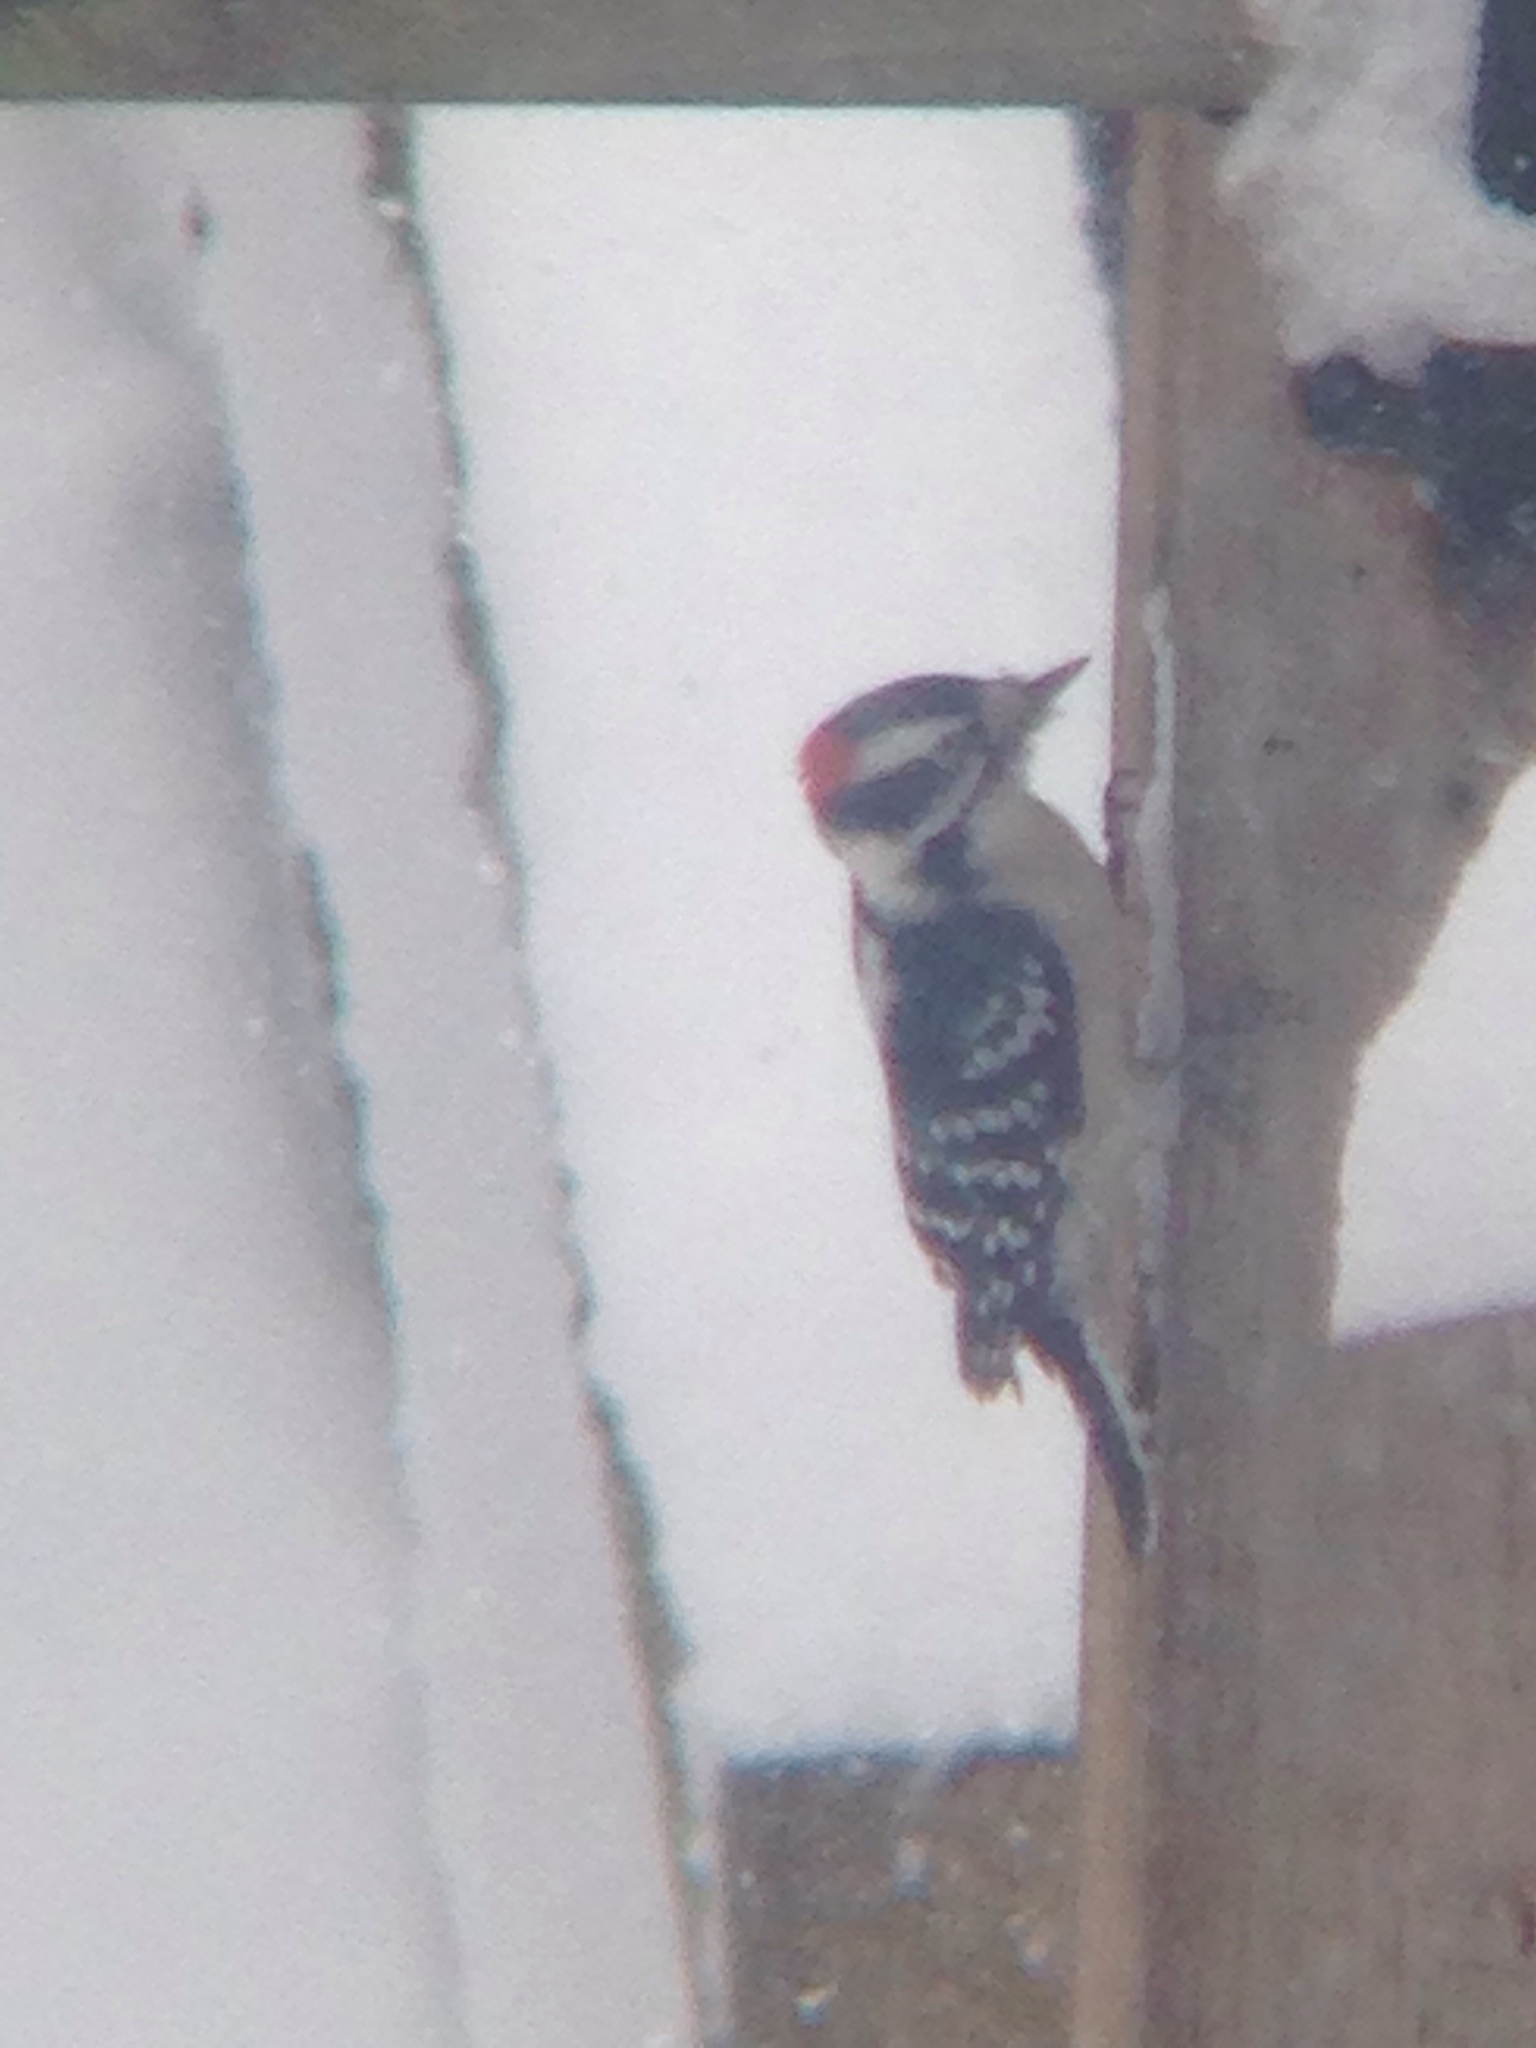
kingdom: Animalia
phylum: Chordata
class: Aves
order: Piciformes
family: Picidae
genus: Dryobates
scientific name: Dryobates pubescens
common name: Downy woodpecker
